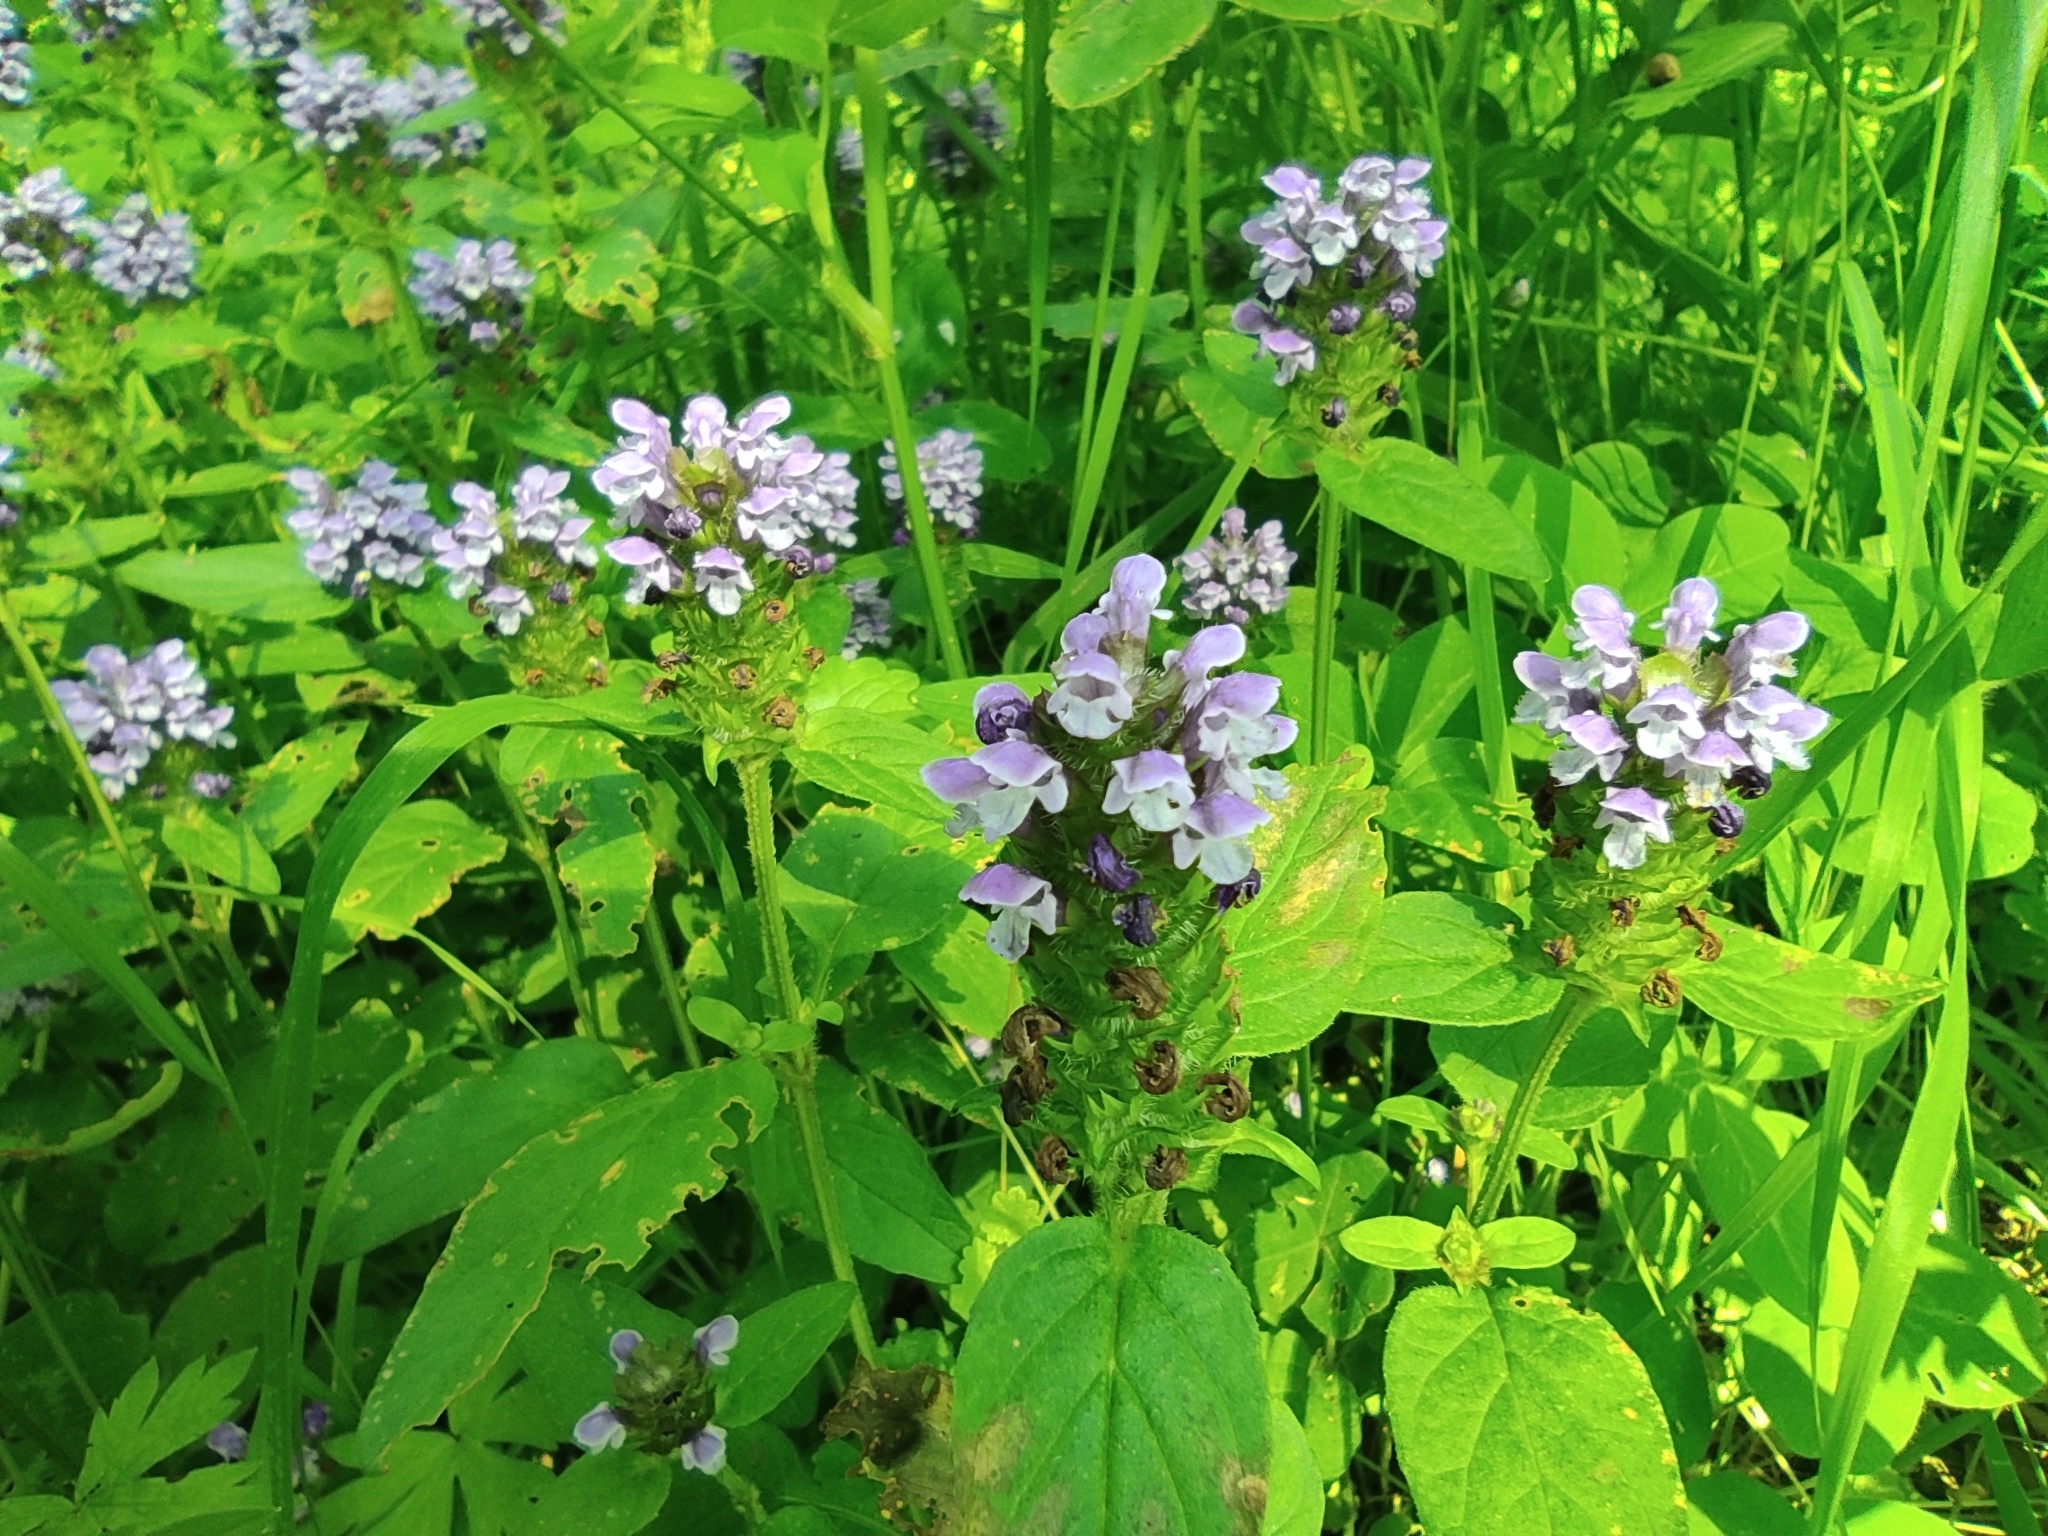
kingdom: Plantae
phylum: Tracheophyta
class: Magnoliopsida
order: Lamiales
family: Lamiaceae
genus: Prunella
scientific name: Prunella vulgaris
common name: Heal-all
